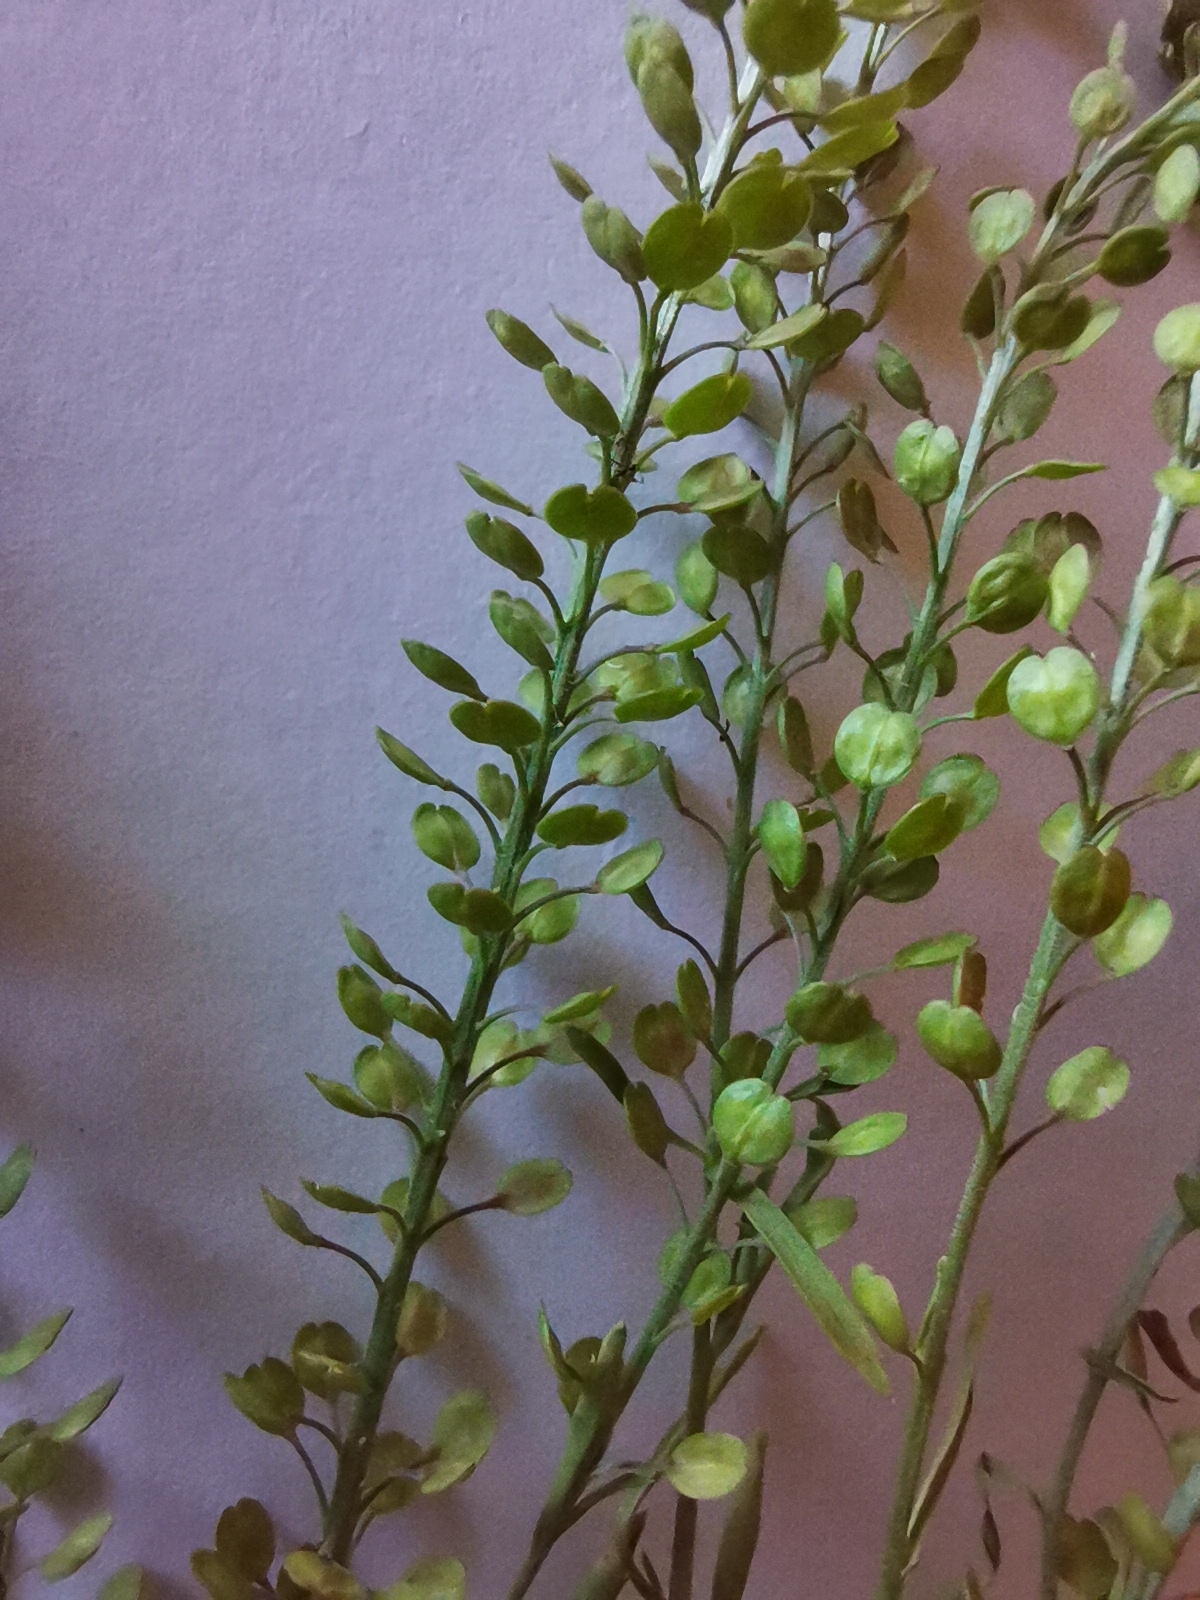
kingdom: Plantae
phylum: Tracheophyta
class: Magnoliopsida
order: Brassicales
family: Brassicaceae
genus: Lepidium
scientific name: Lepidium densiflorum
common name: Miner's pepperwort
